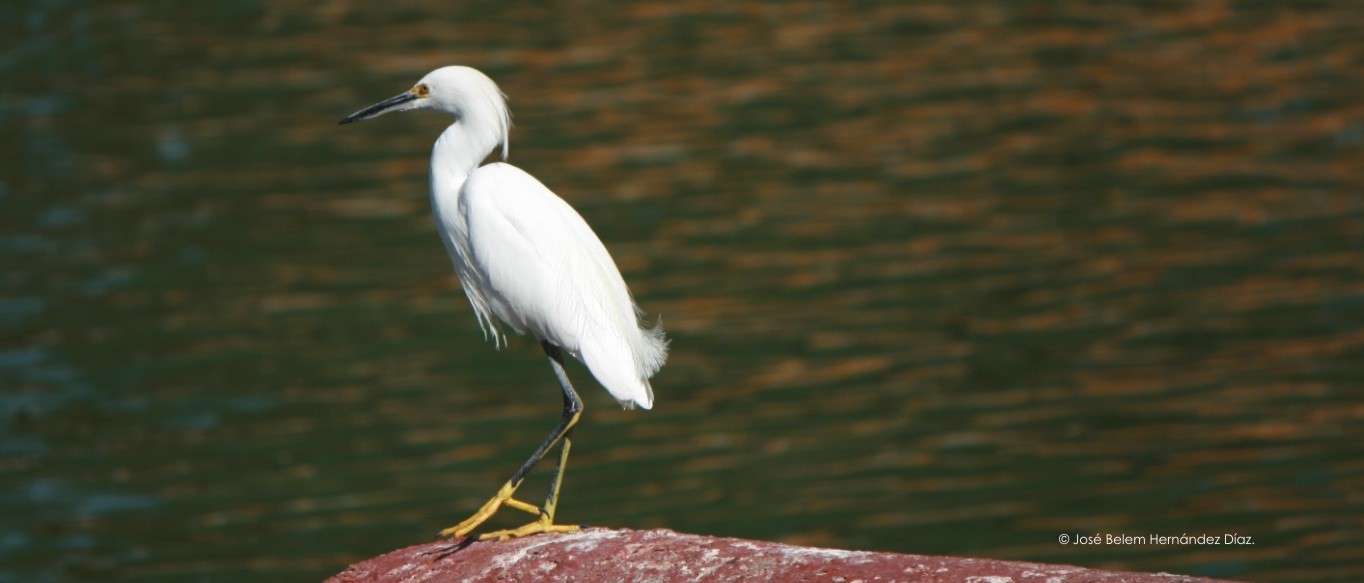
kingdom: Animalia
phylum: Chordata
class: Aves
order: Pelecaniformes
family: Ardeidae
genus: Egretta
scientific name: Egretta thula
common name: Snowy egret
